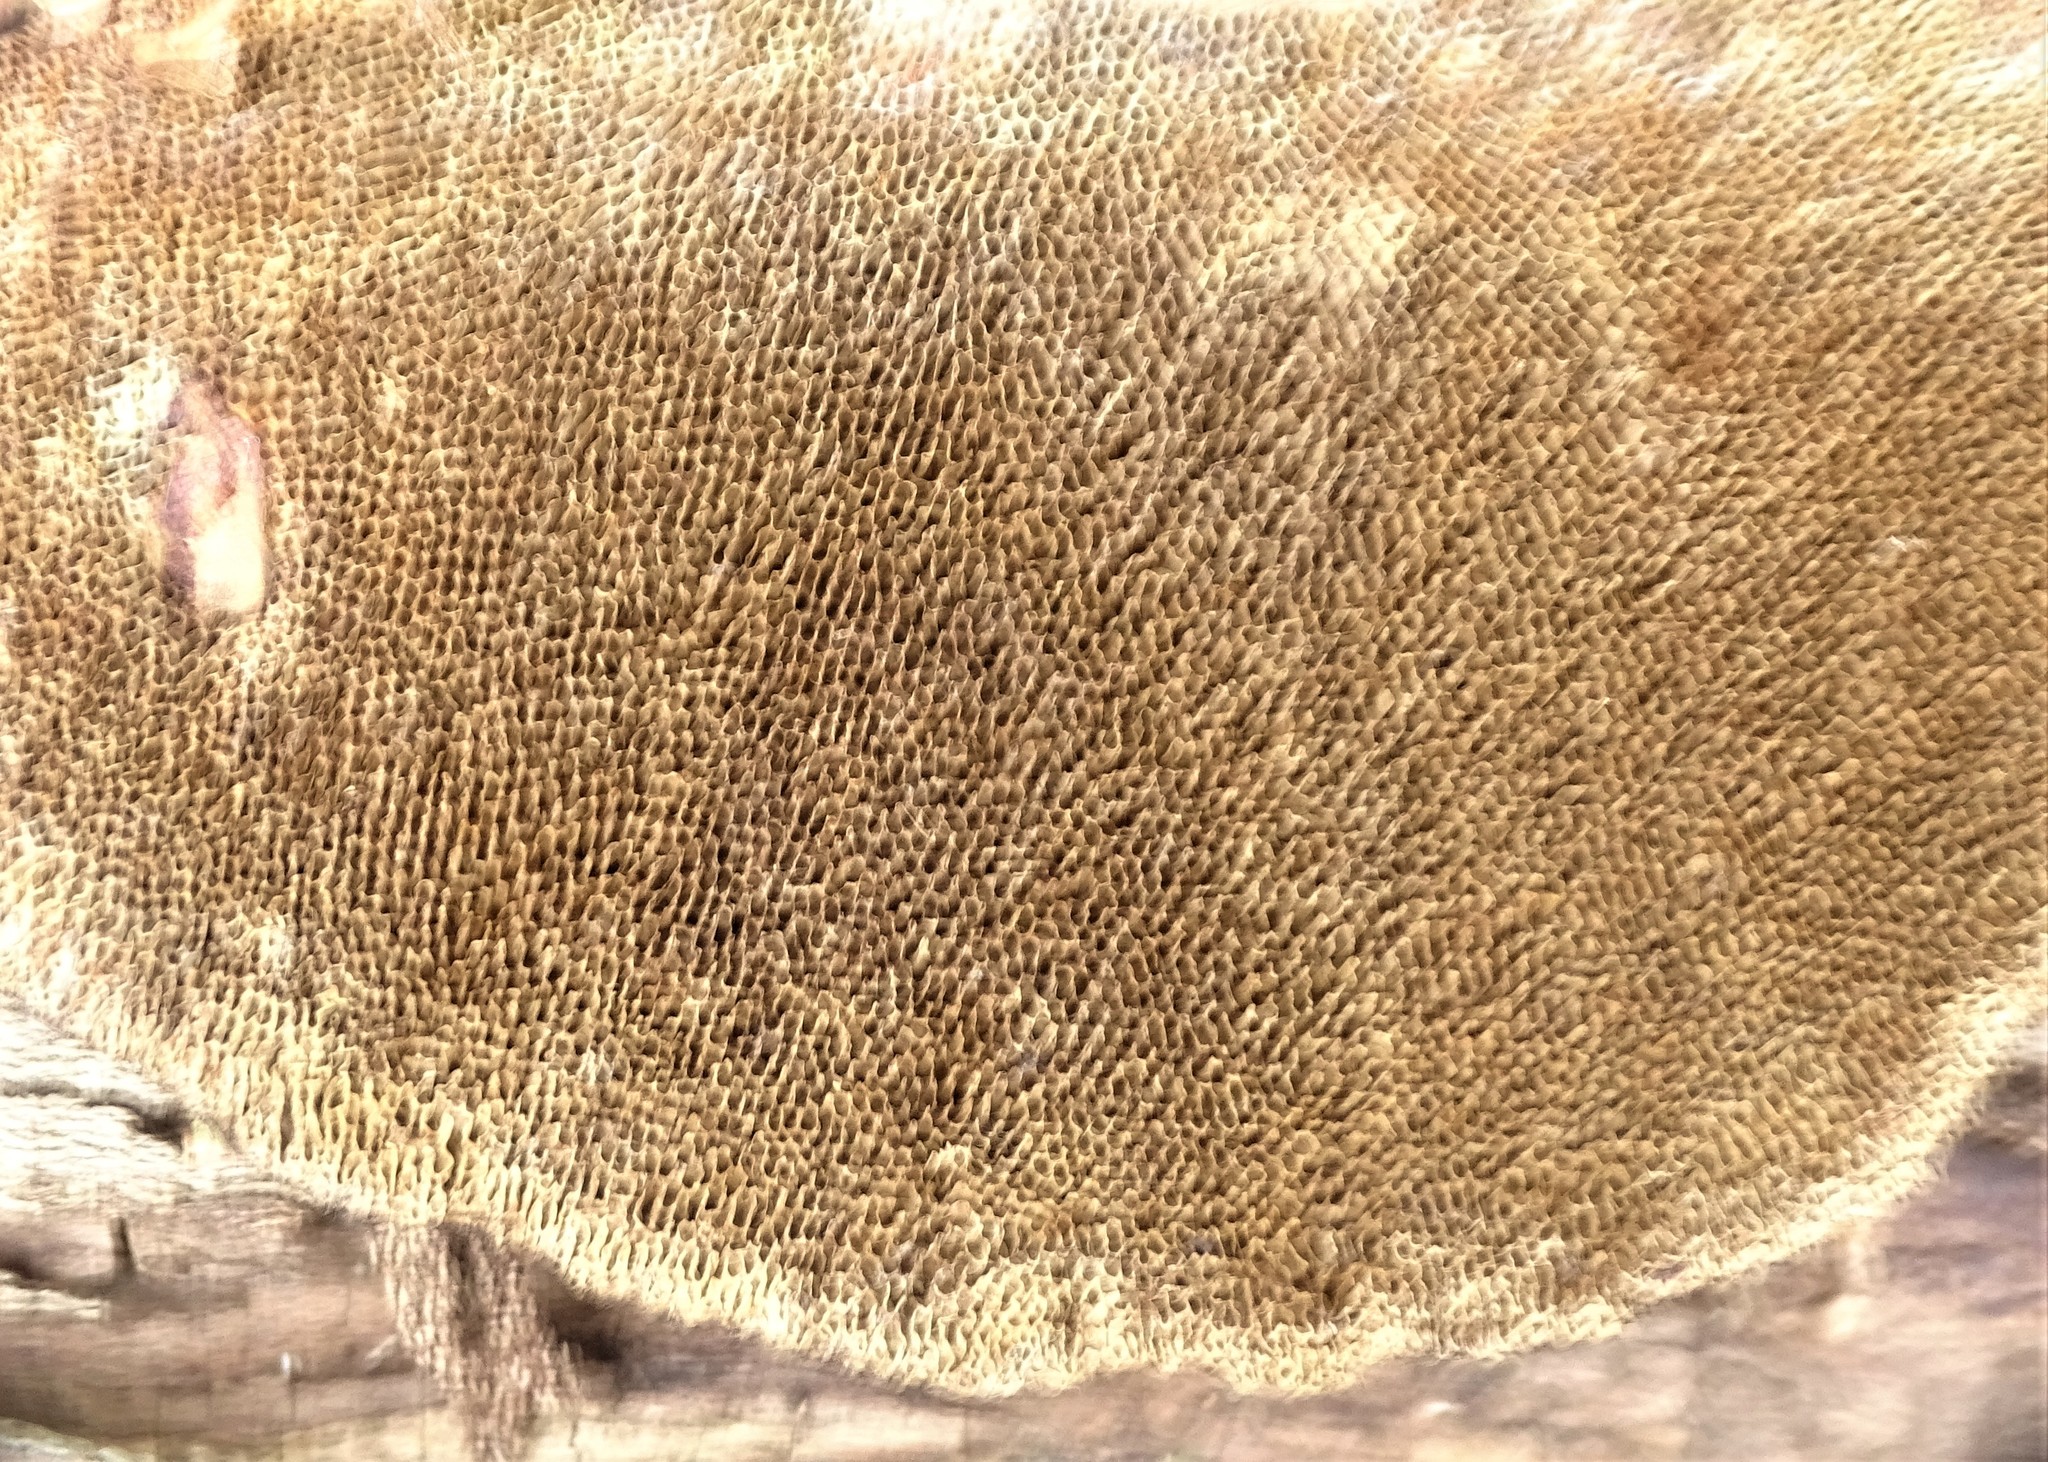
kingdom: Fungi
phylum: Basidiomycota
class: Agaricomycetes
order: Polyporales
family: Polyporaceae
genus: Daedaleopsis
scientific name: Daedaleopsis confragosa
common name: Blushing bracket
